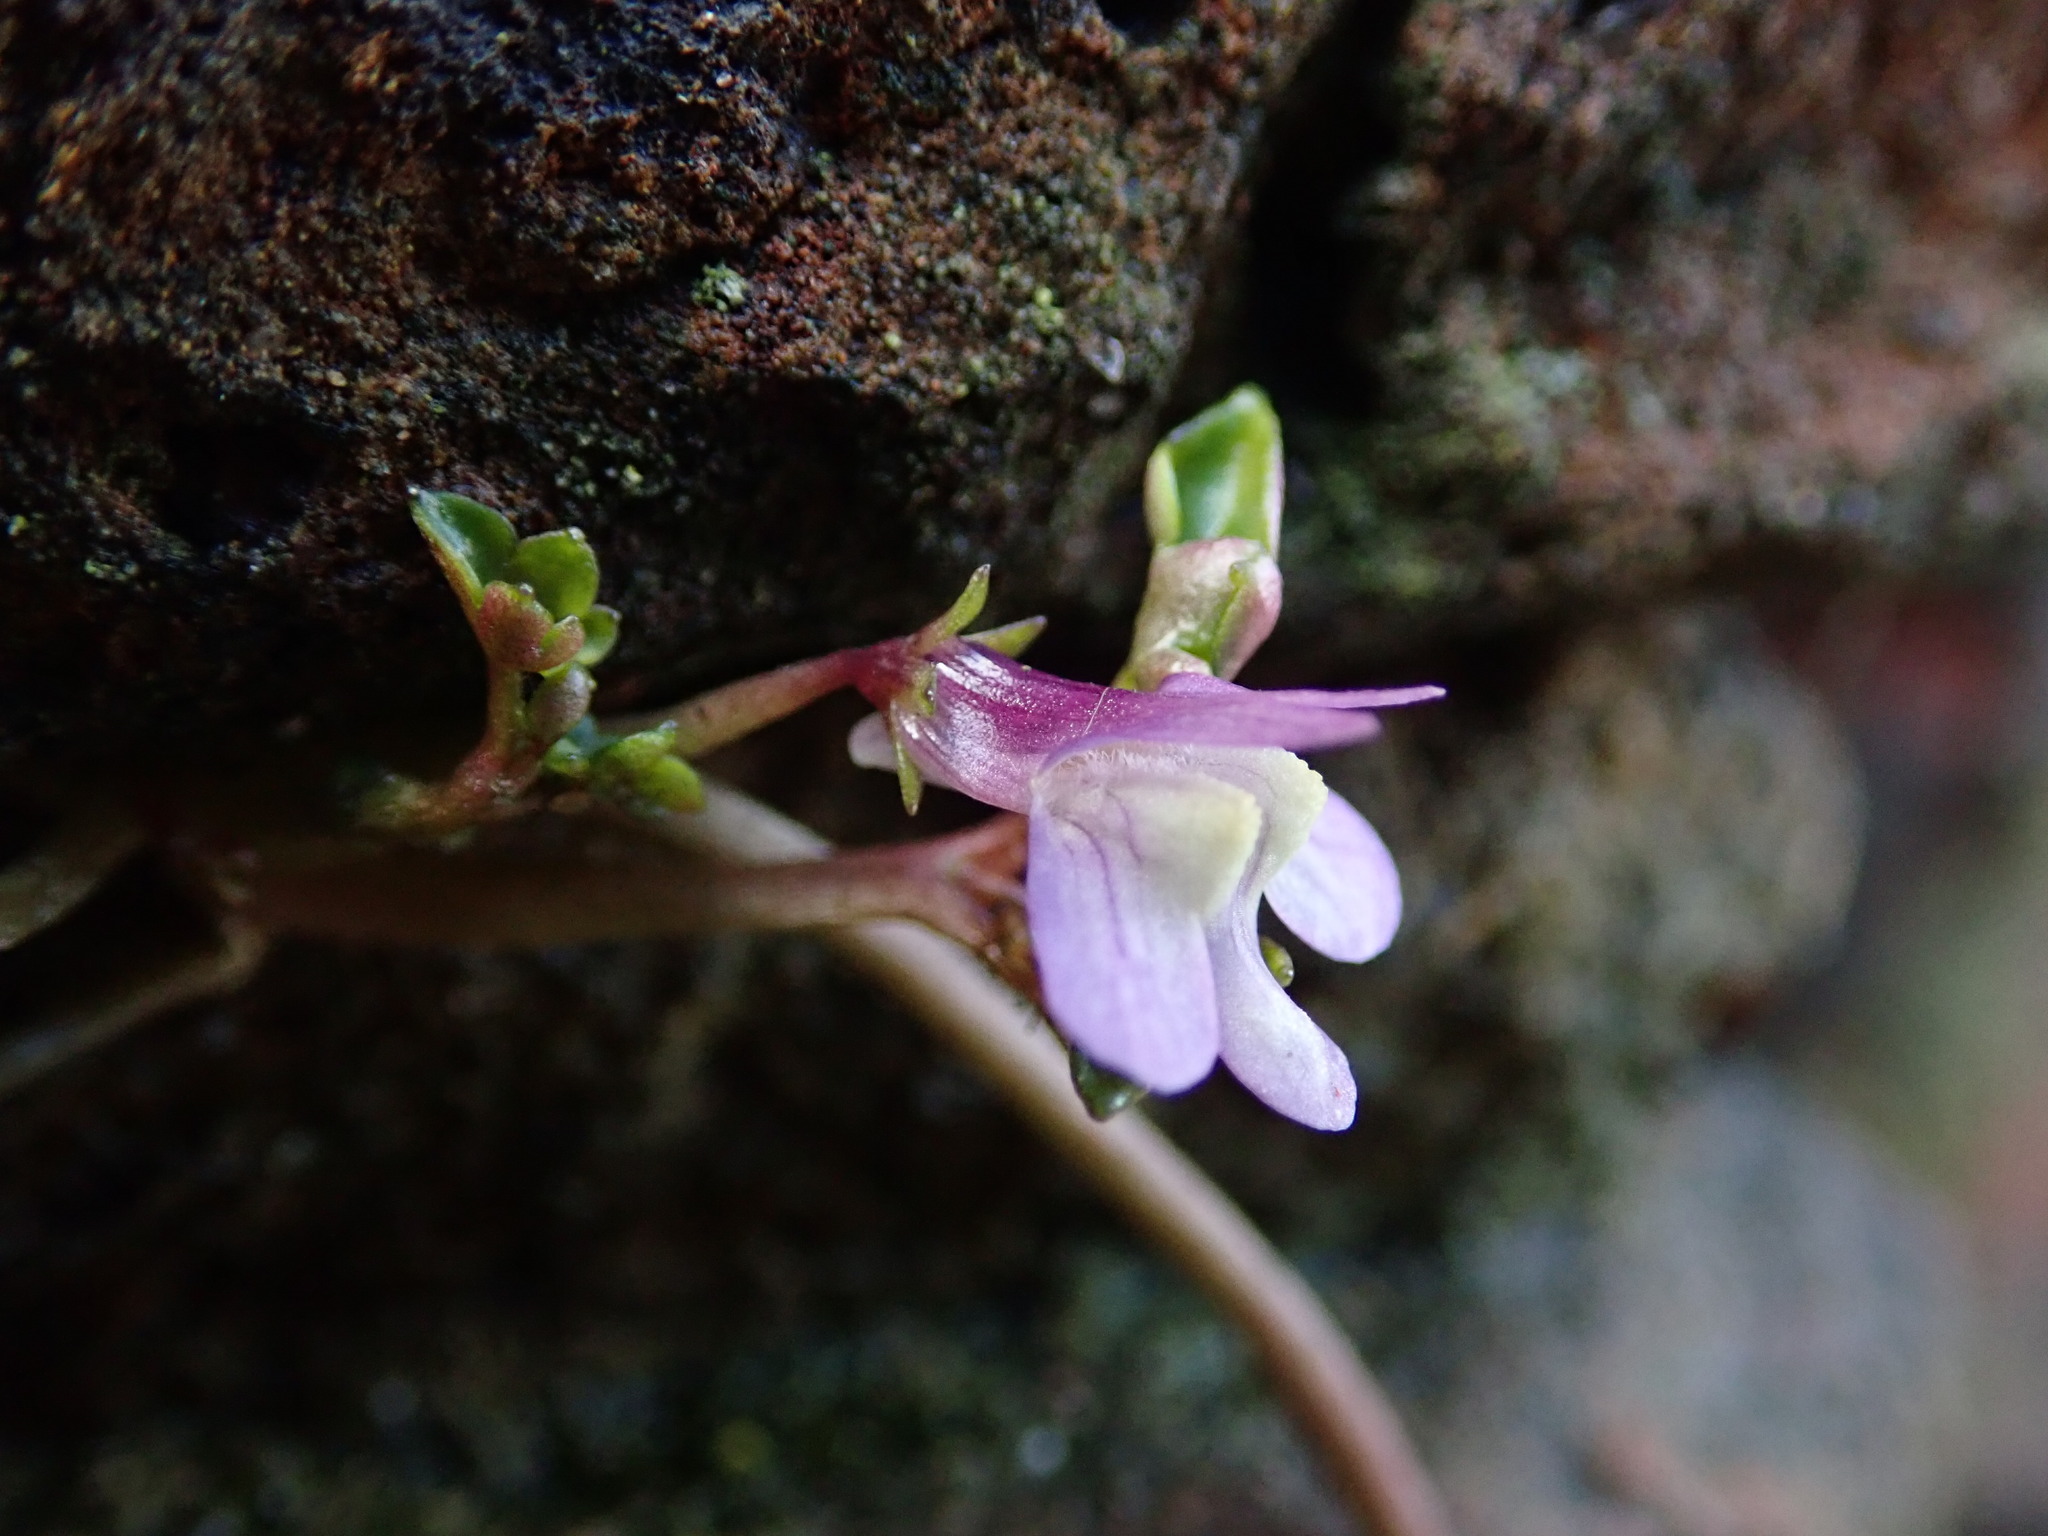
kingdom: Plantae
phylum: Tracheophyta
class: Magnoliopsida
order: Lamiales
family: Plantaginaceae
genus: Cymbalaria
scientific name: Cymbalaria muralis
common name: Ivy-leaved toadflax
